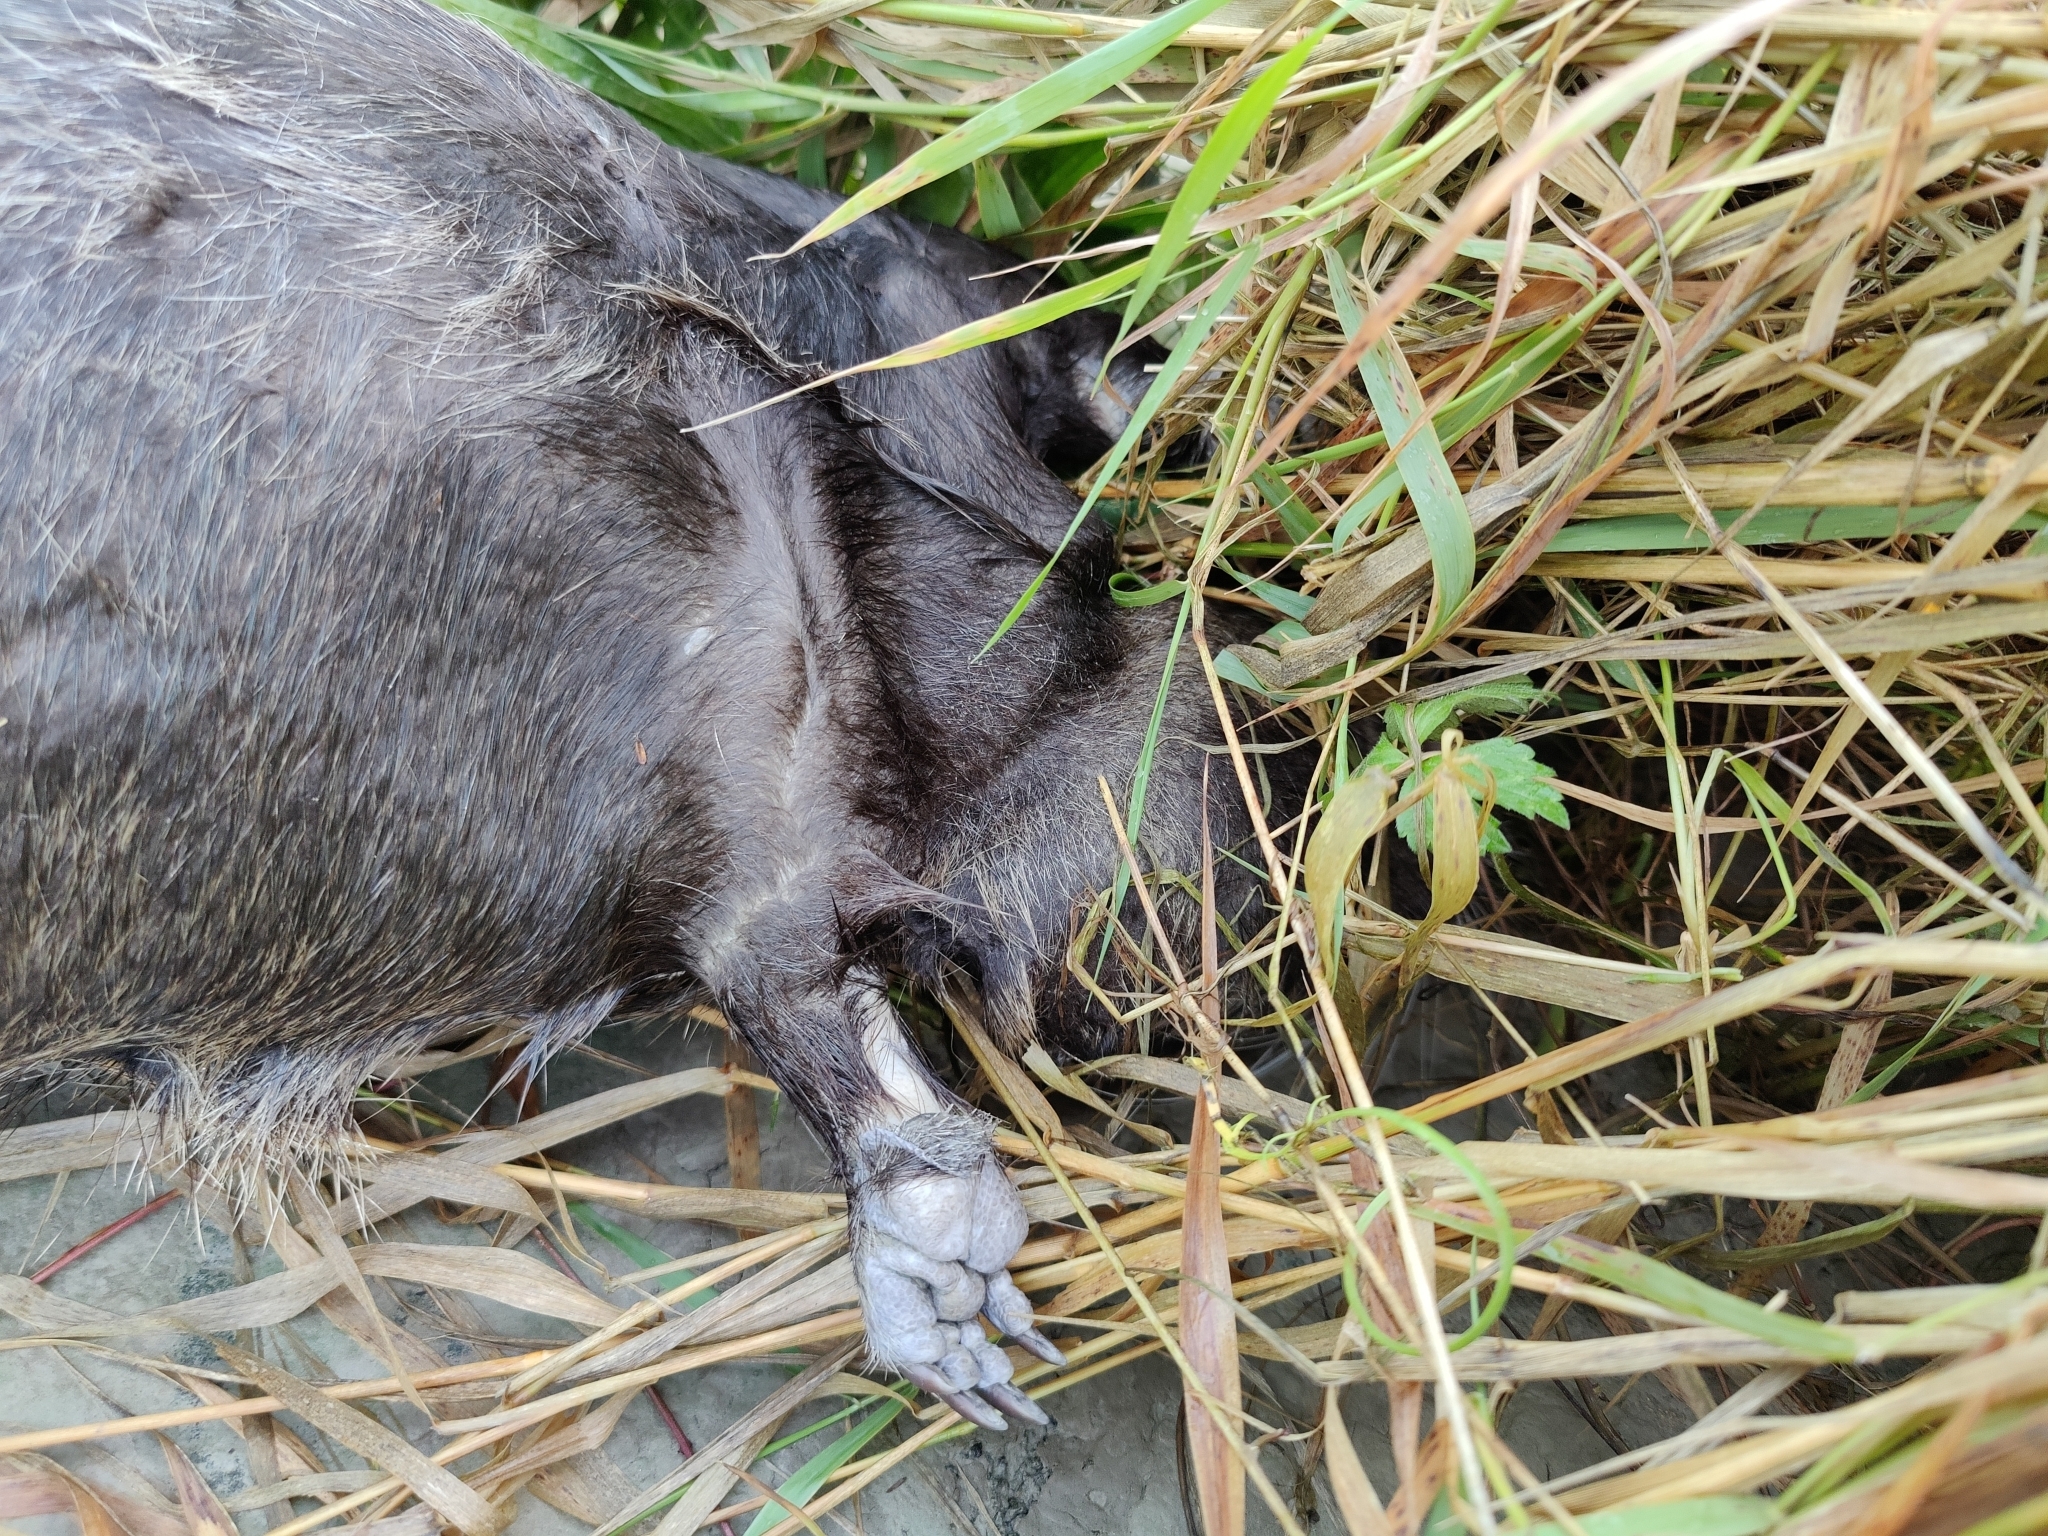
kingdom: Animalia
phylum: Chordata
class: Mammalia
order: Rodentia
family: Myocastoridae
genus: Myocastor
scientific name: Myocastor coypus
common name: Coypu
